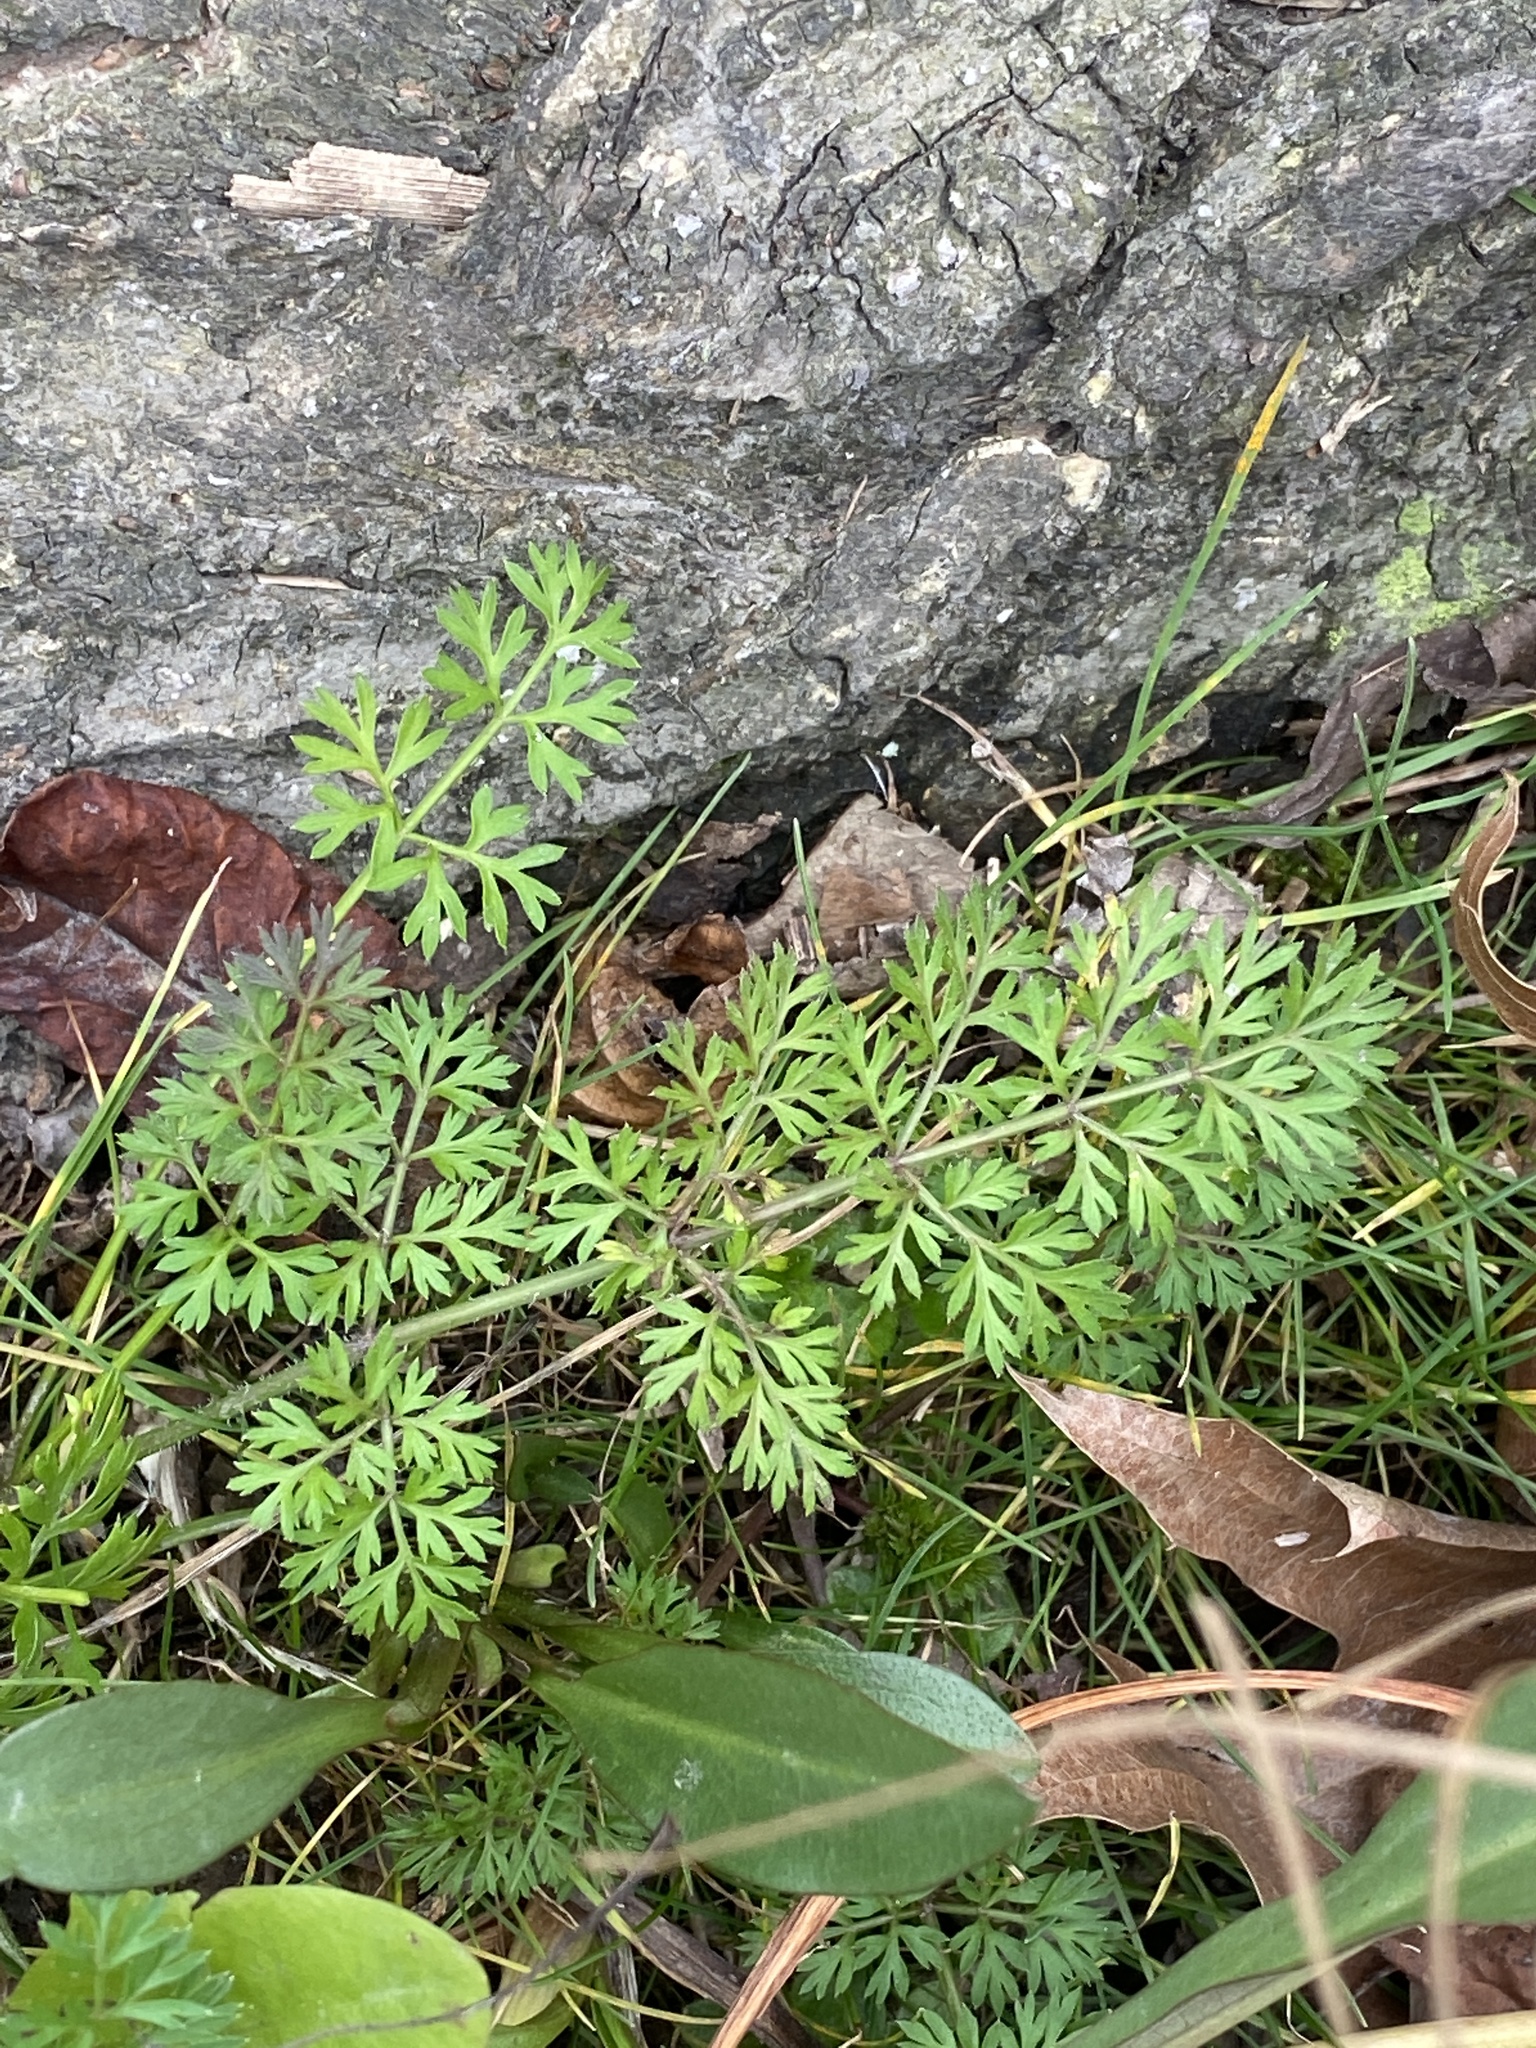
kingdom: Plantae
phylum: Tracheophyta
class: Magnoliopsida
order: Apiales
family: Apiaceae
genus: Daucus
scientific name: Daucus carota
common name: Wild carrot
